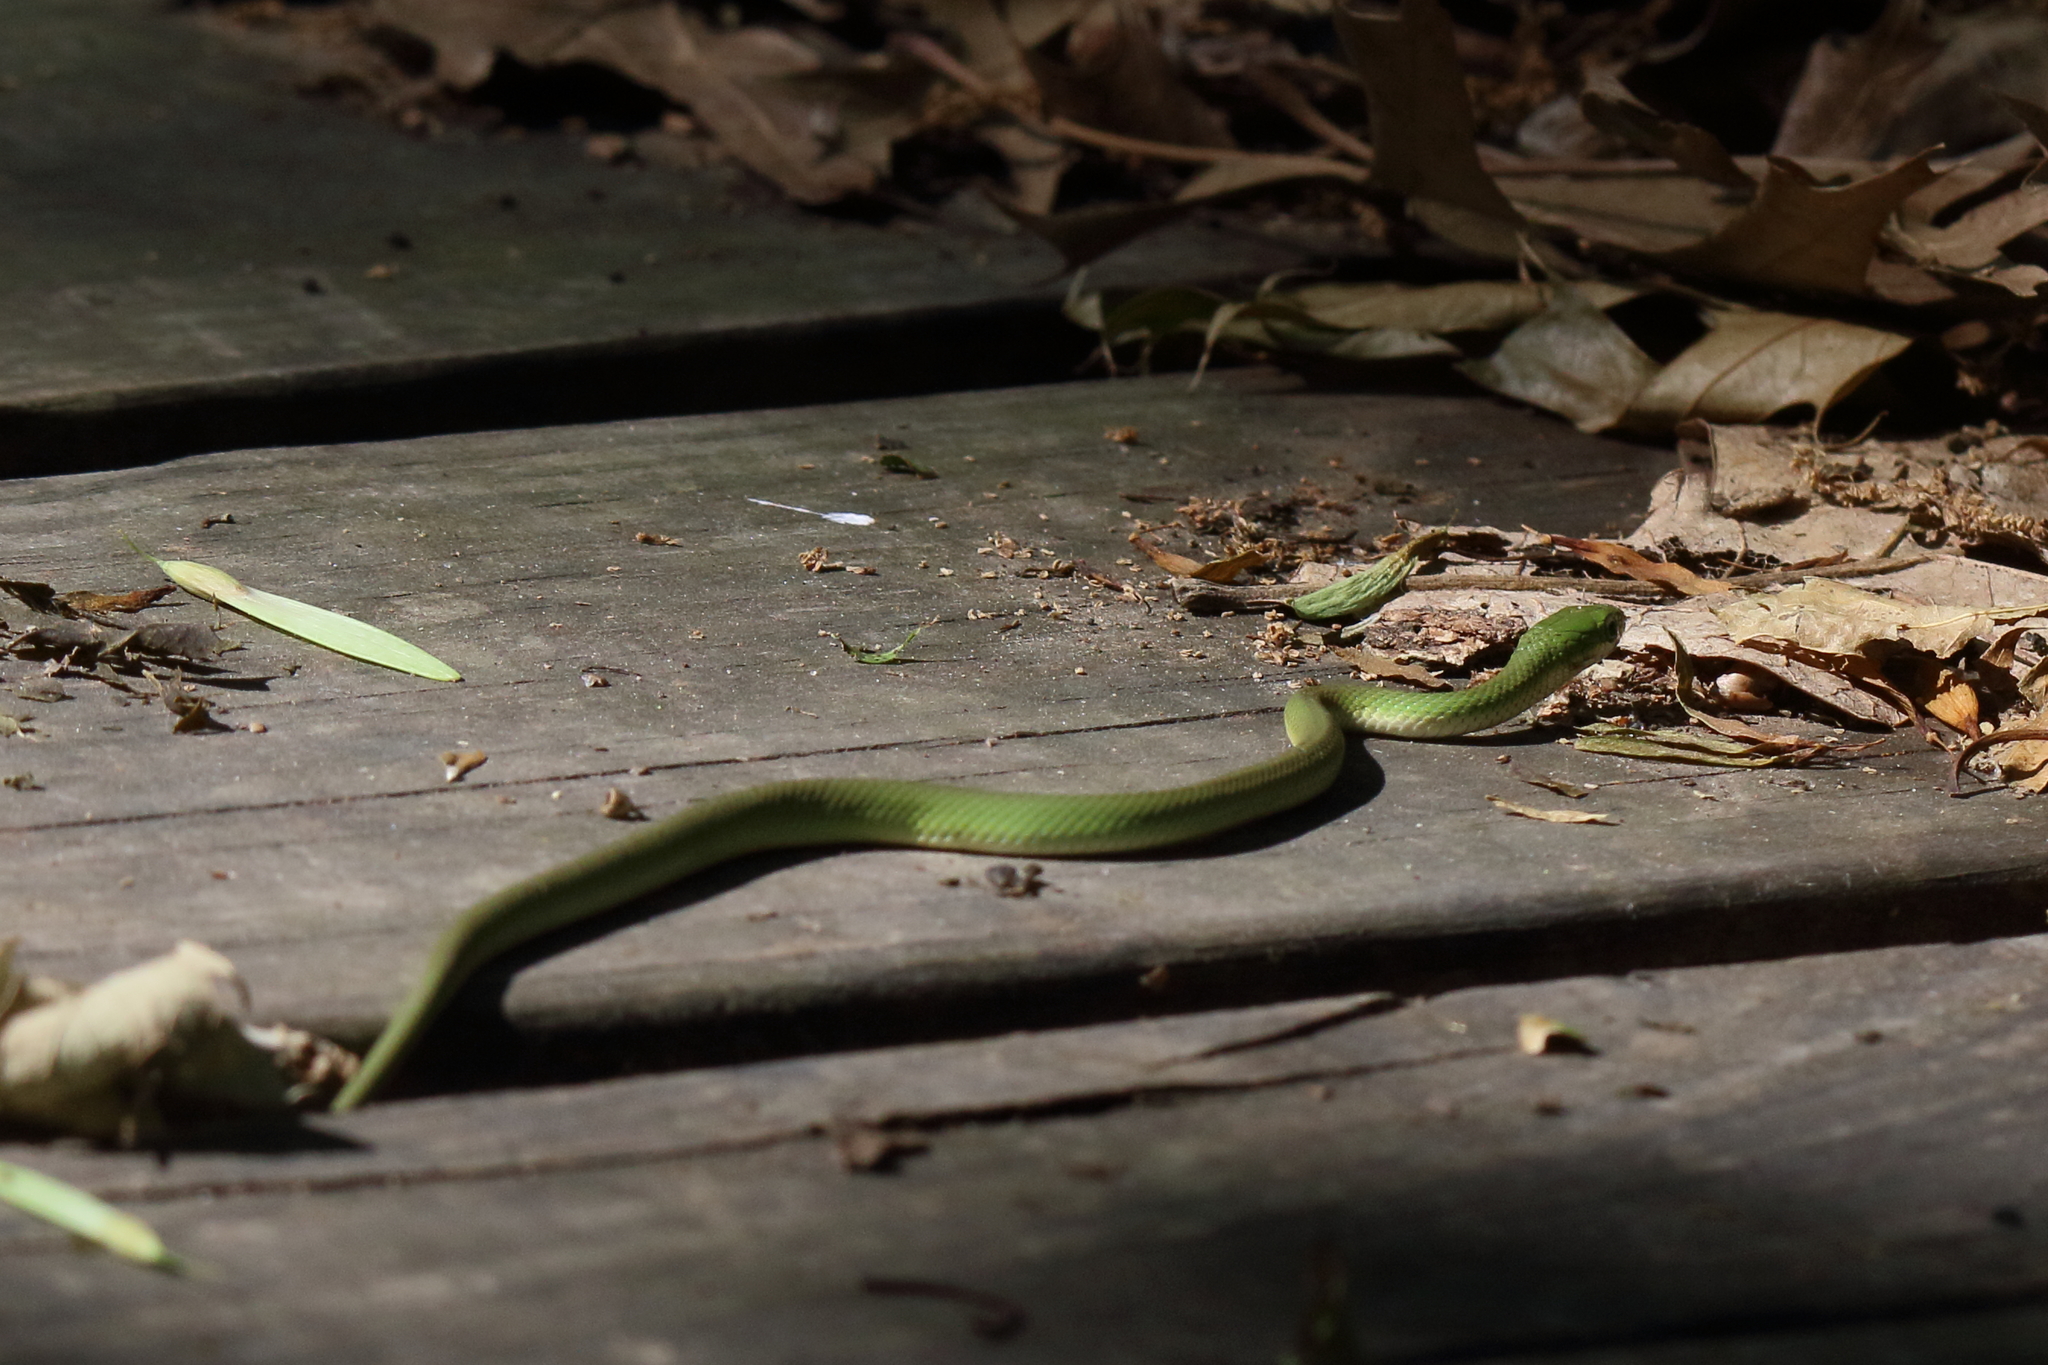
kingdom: Animalia
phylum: Chordata
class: Squamata
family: Colubridae
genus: Opheodrys
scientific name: Opheodrys aestivus
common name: Rough greensnake
